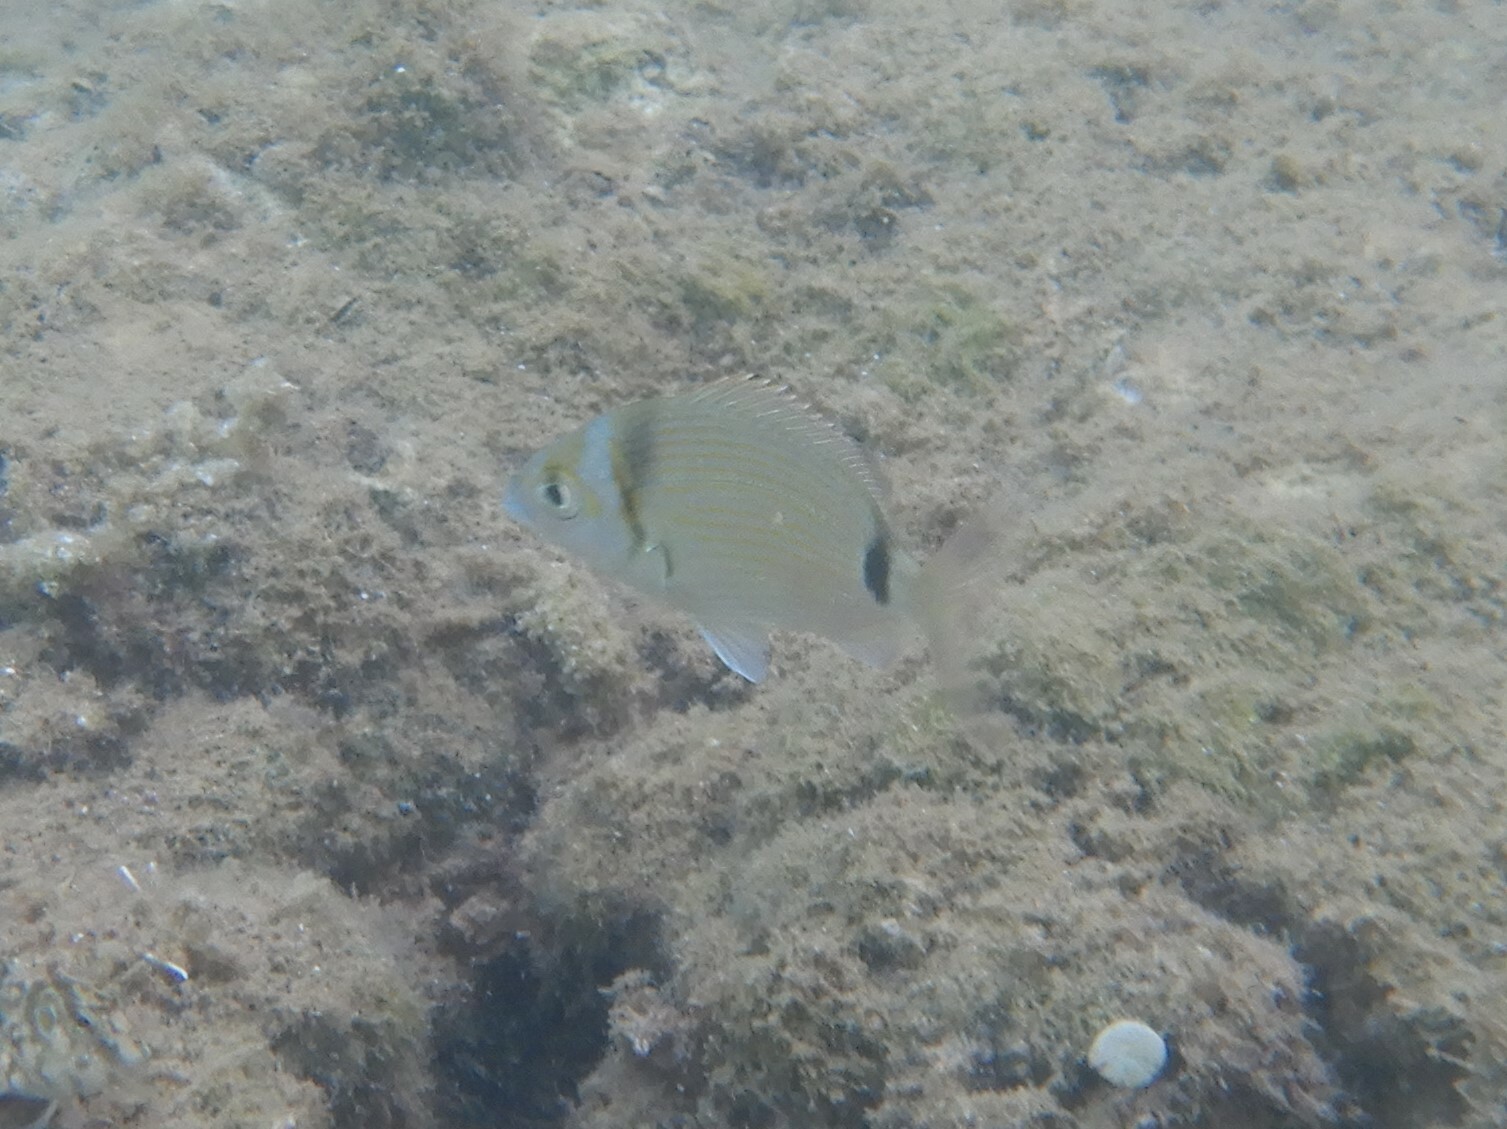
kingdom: Animalia
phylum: Chordata
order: Perciformes
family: Sparidae
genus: Diplodus
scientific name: Diplodus vulgaris
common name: Common two-banded seabream
